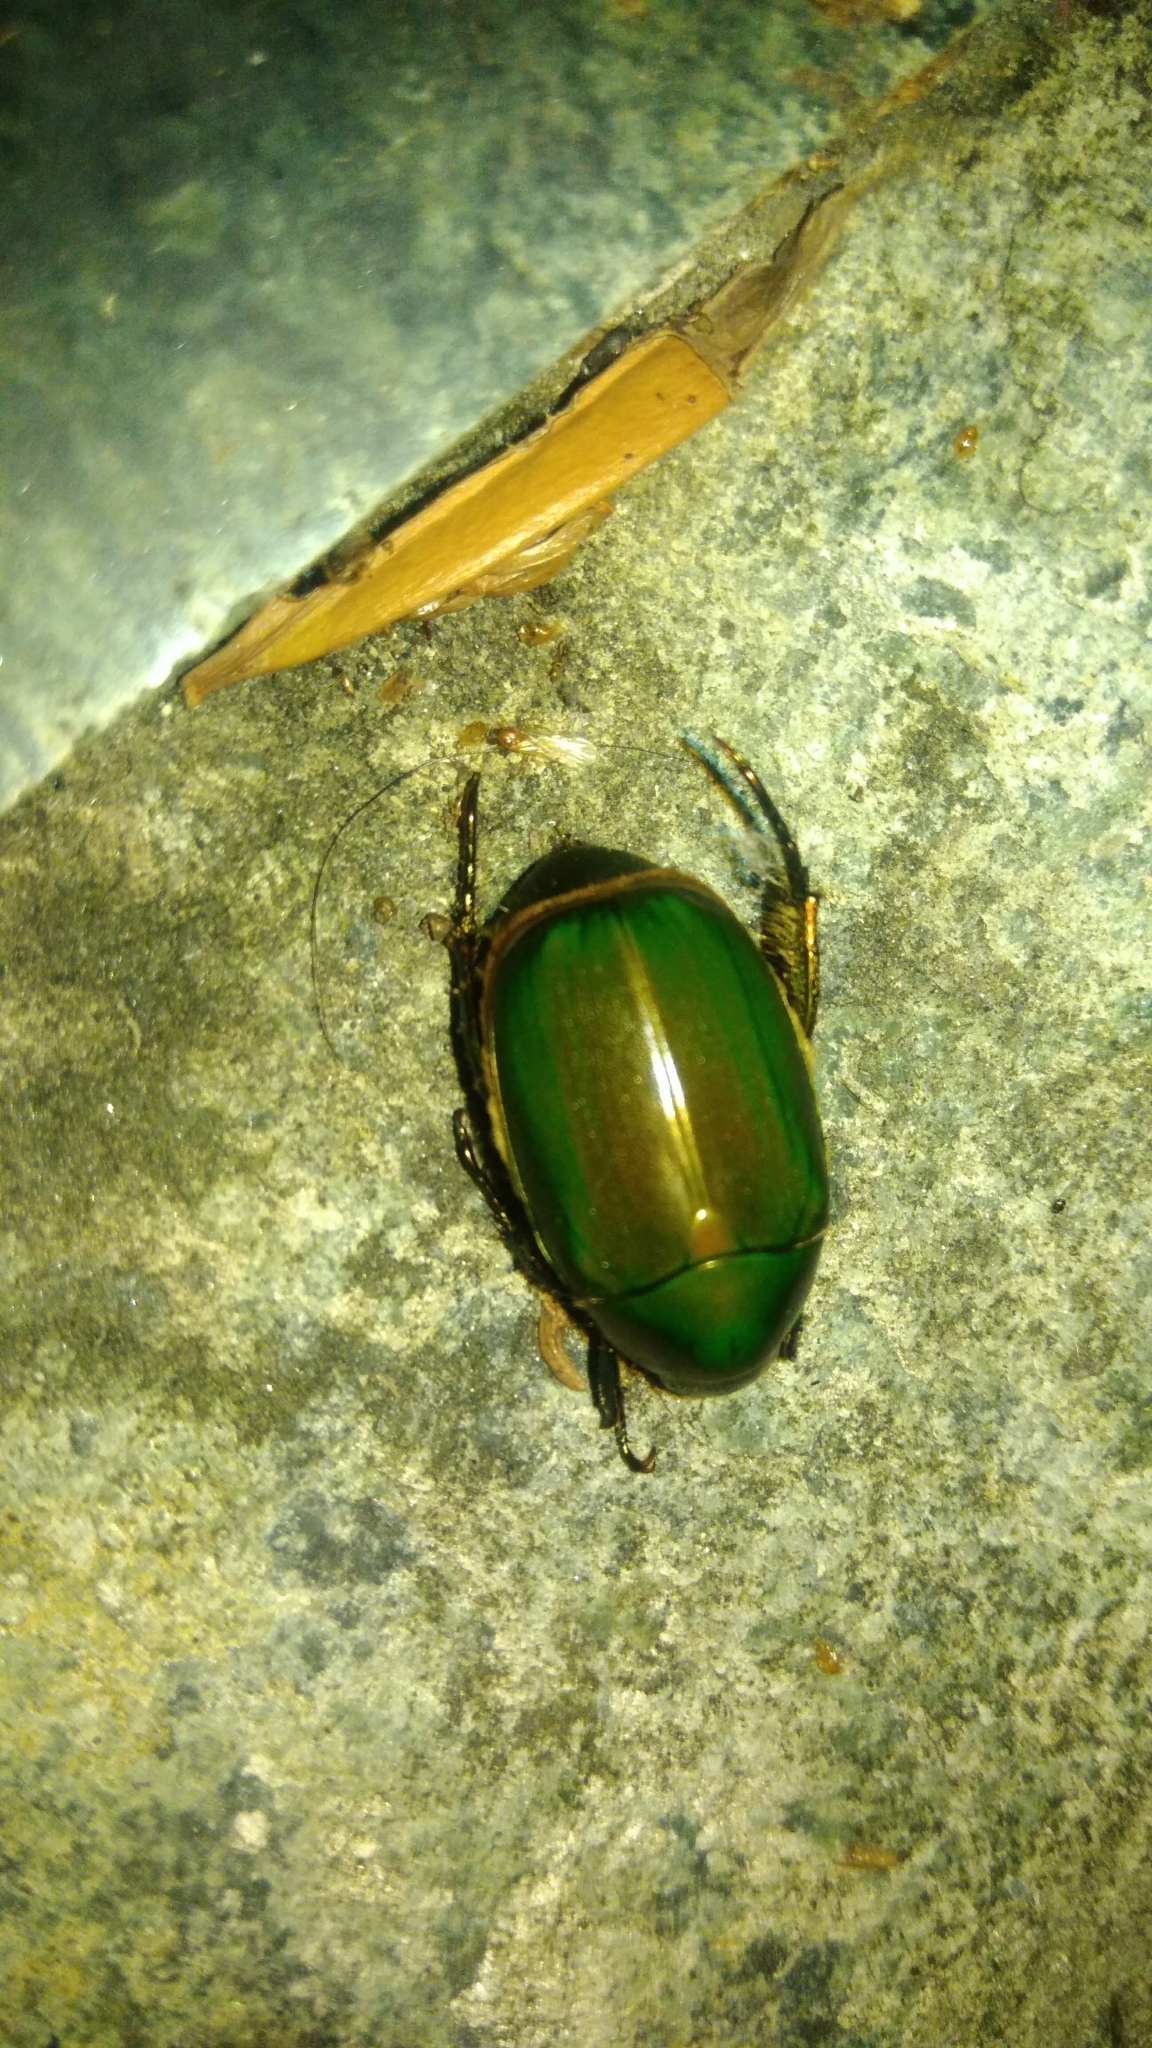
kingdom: Animalia
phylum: Arthropoda
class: Insecta
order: Coleoptera
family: Scarabaeidae
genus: Anomala
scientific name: Anomala albopilosa
